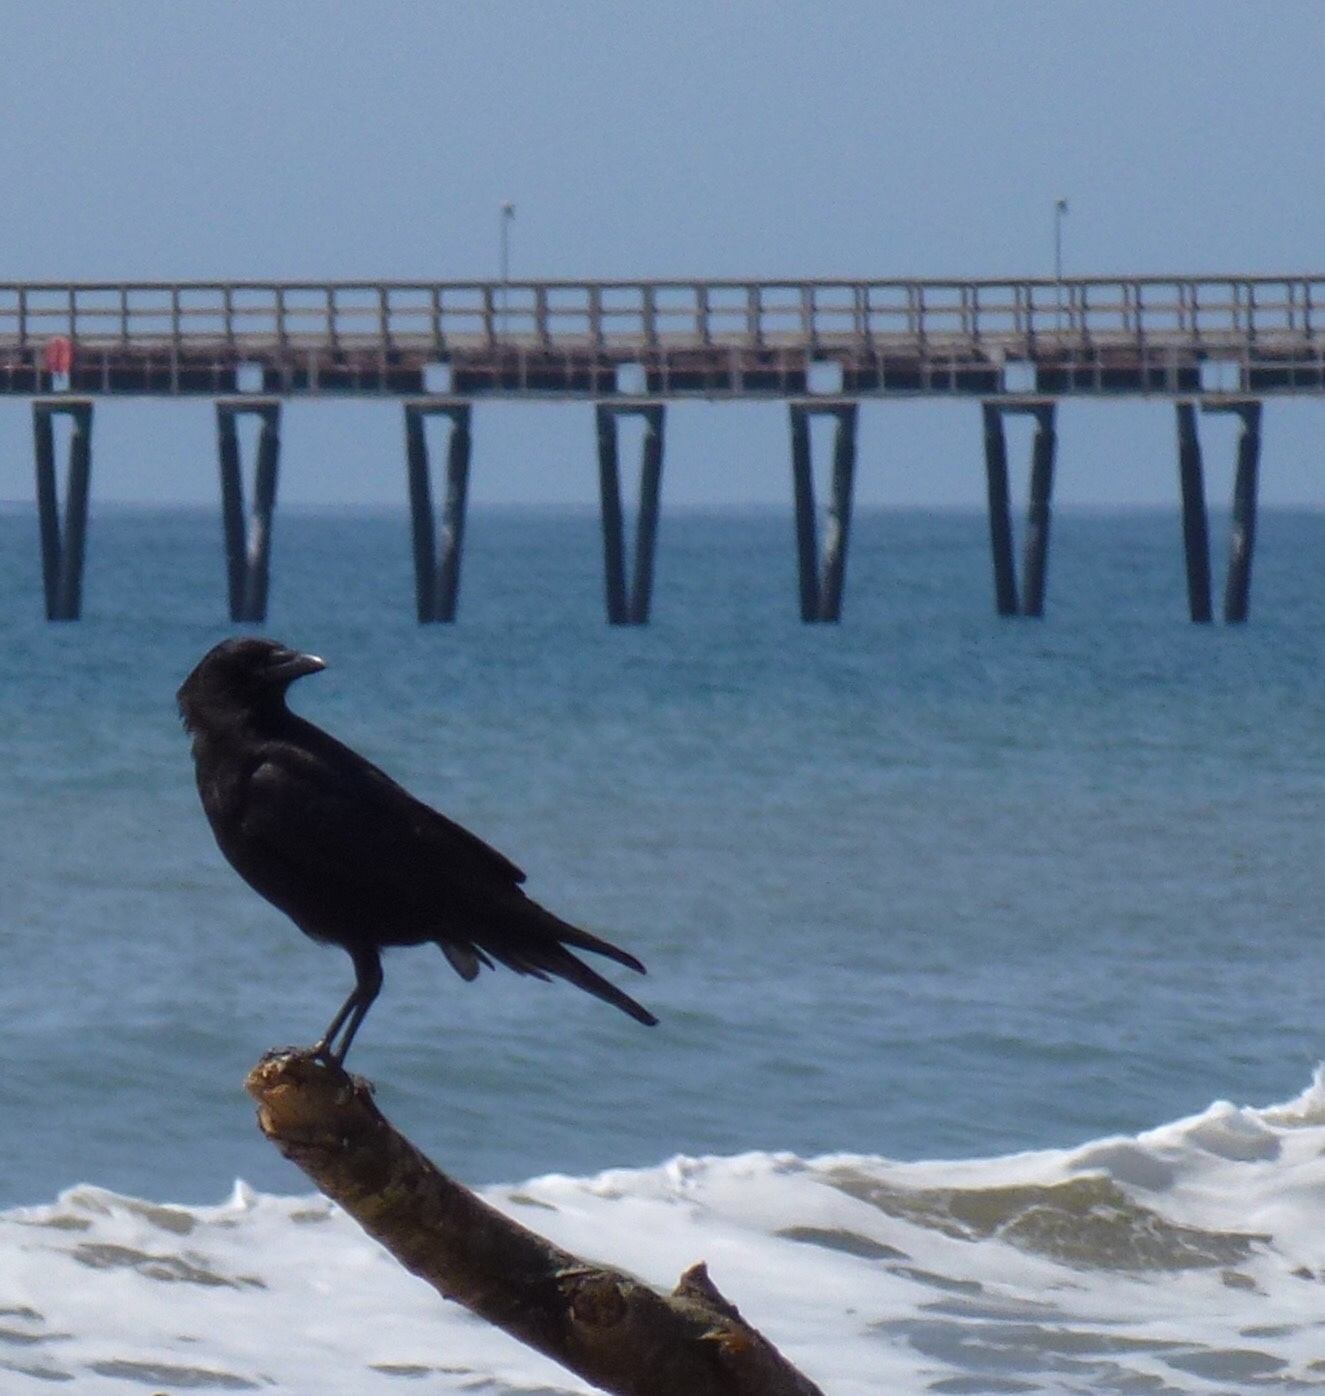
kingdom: Animalia
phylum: Chordata
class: Aves
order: Passeriformes
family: Corvidae
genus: Corvus
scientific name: Corvus brachyrhynchos
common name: American crow
